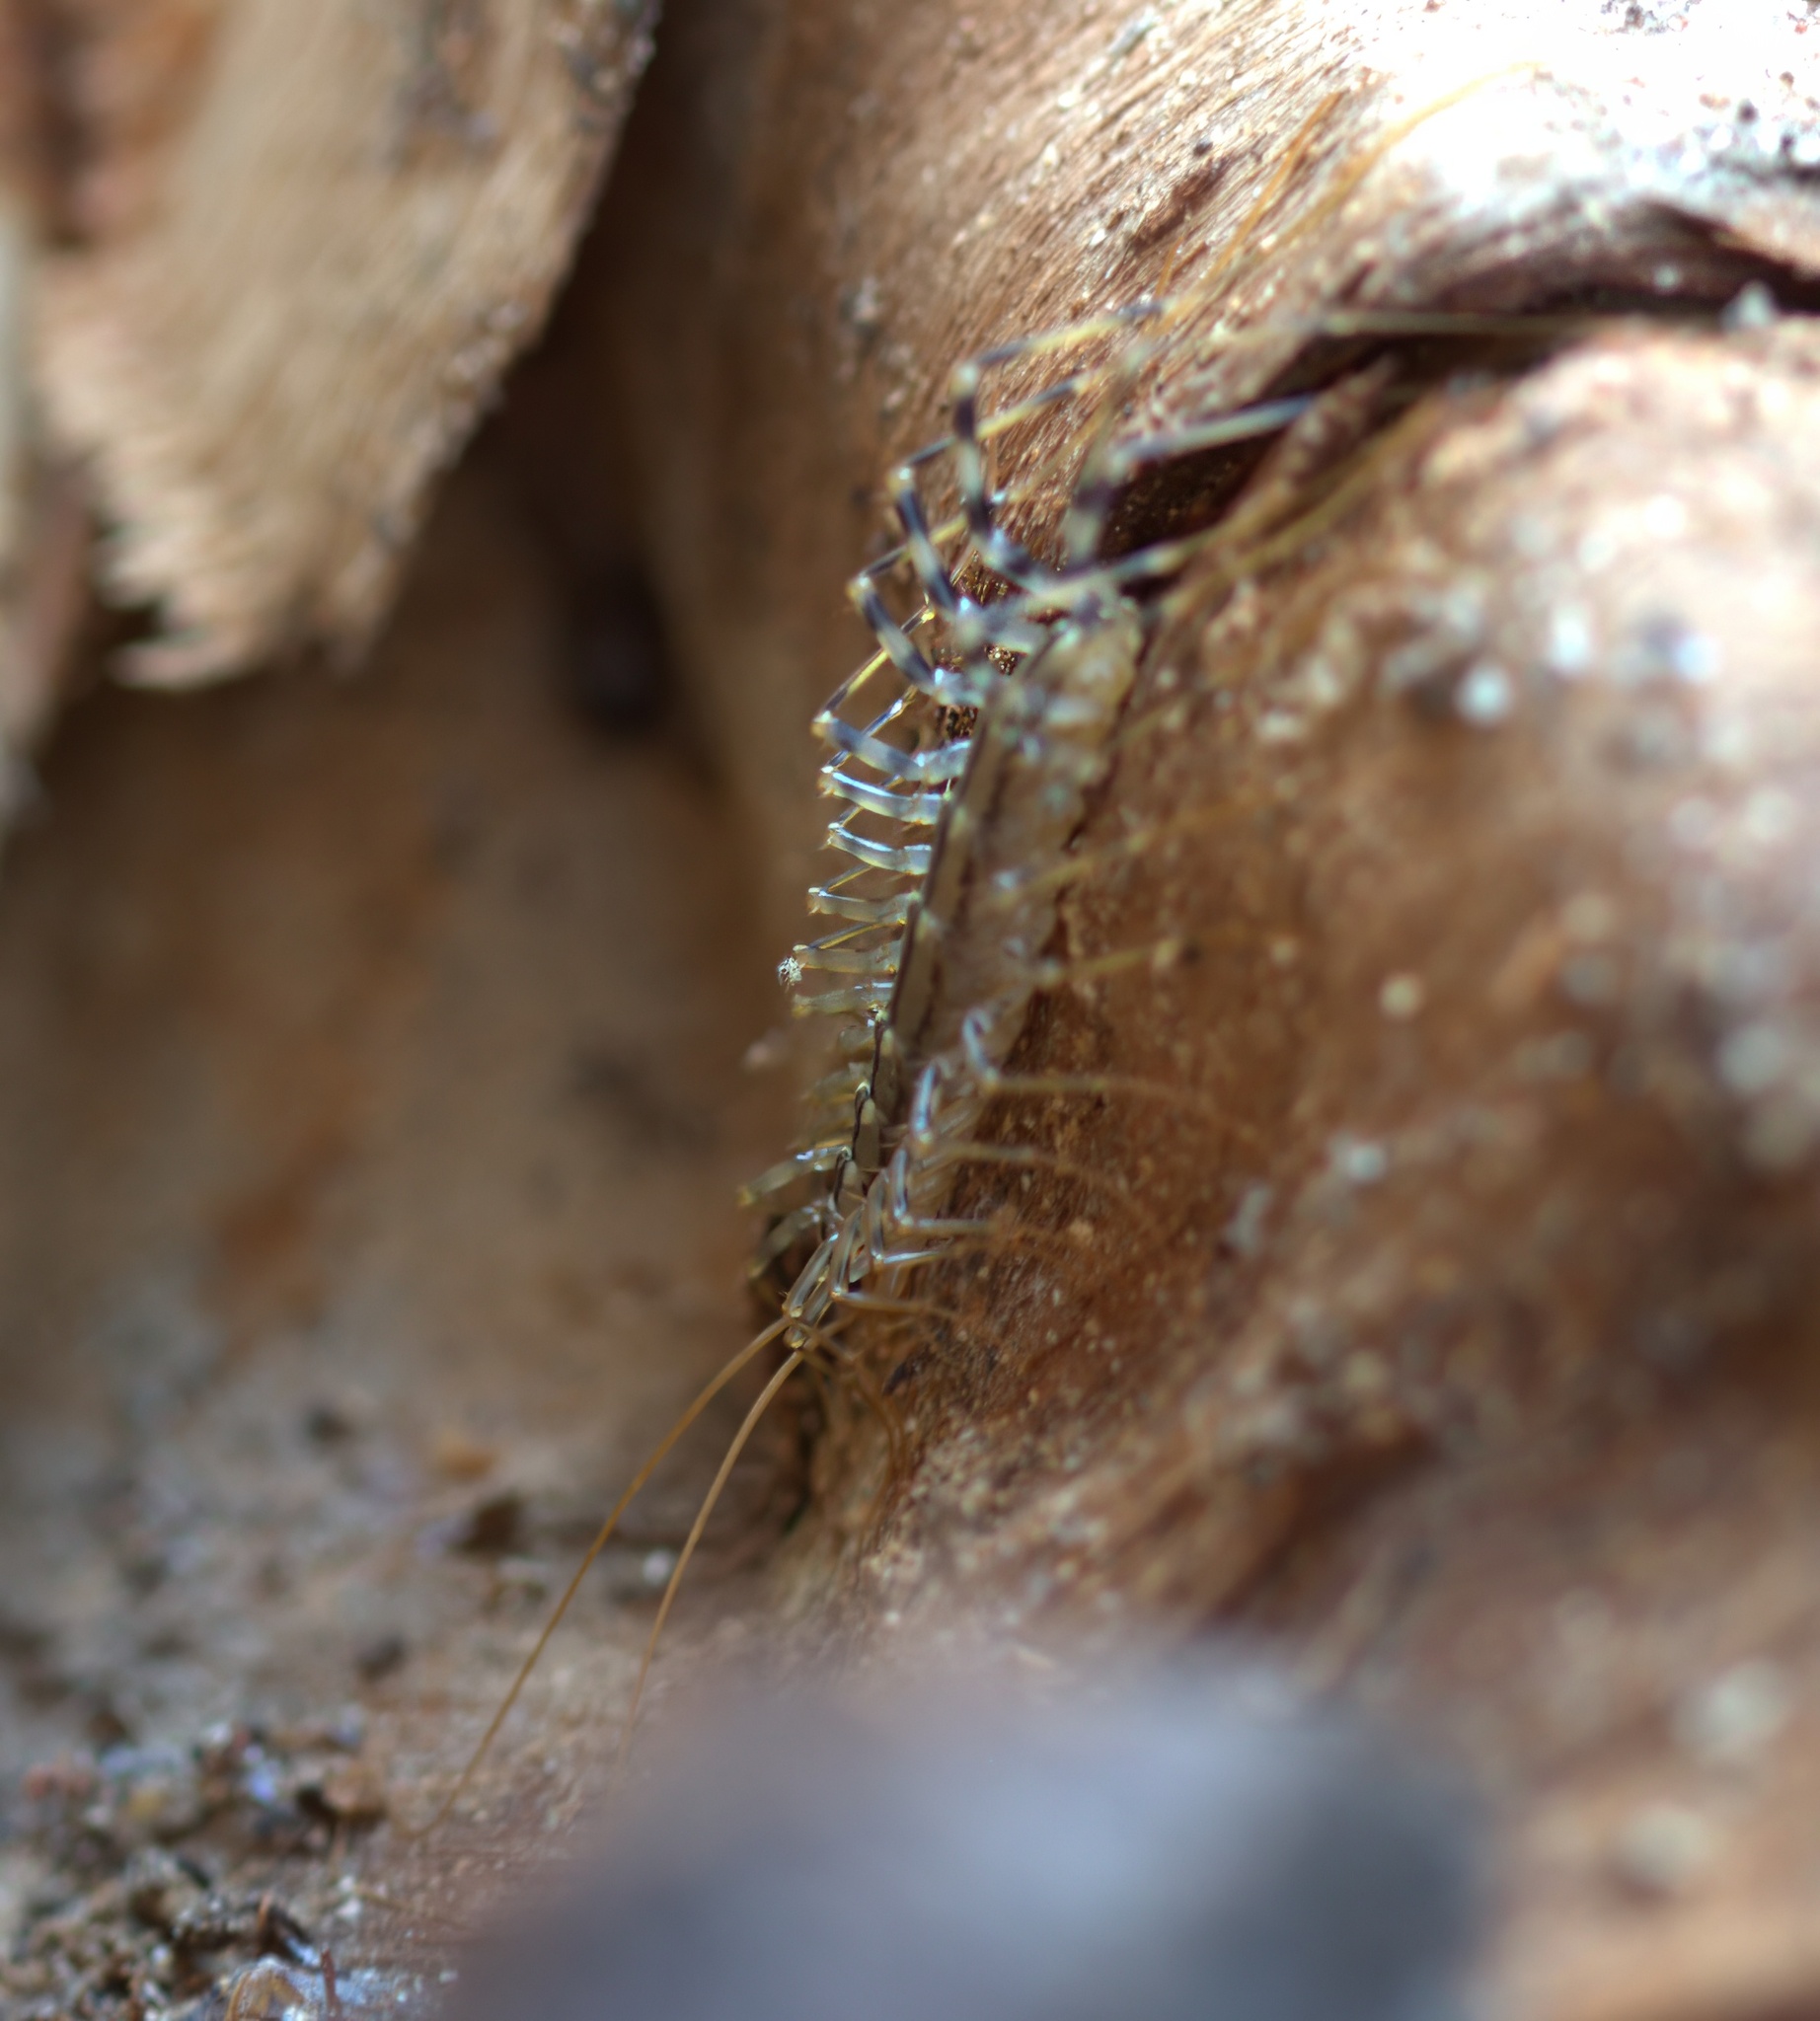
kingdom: Animalia
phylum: Arthropoda
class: Chilopoda
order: Scutigeromorpha
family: Scutigeridae
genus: Scutigera
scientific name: Scutigera coleoptrata
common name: House centipede
